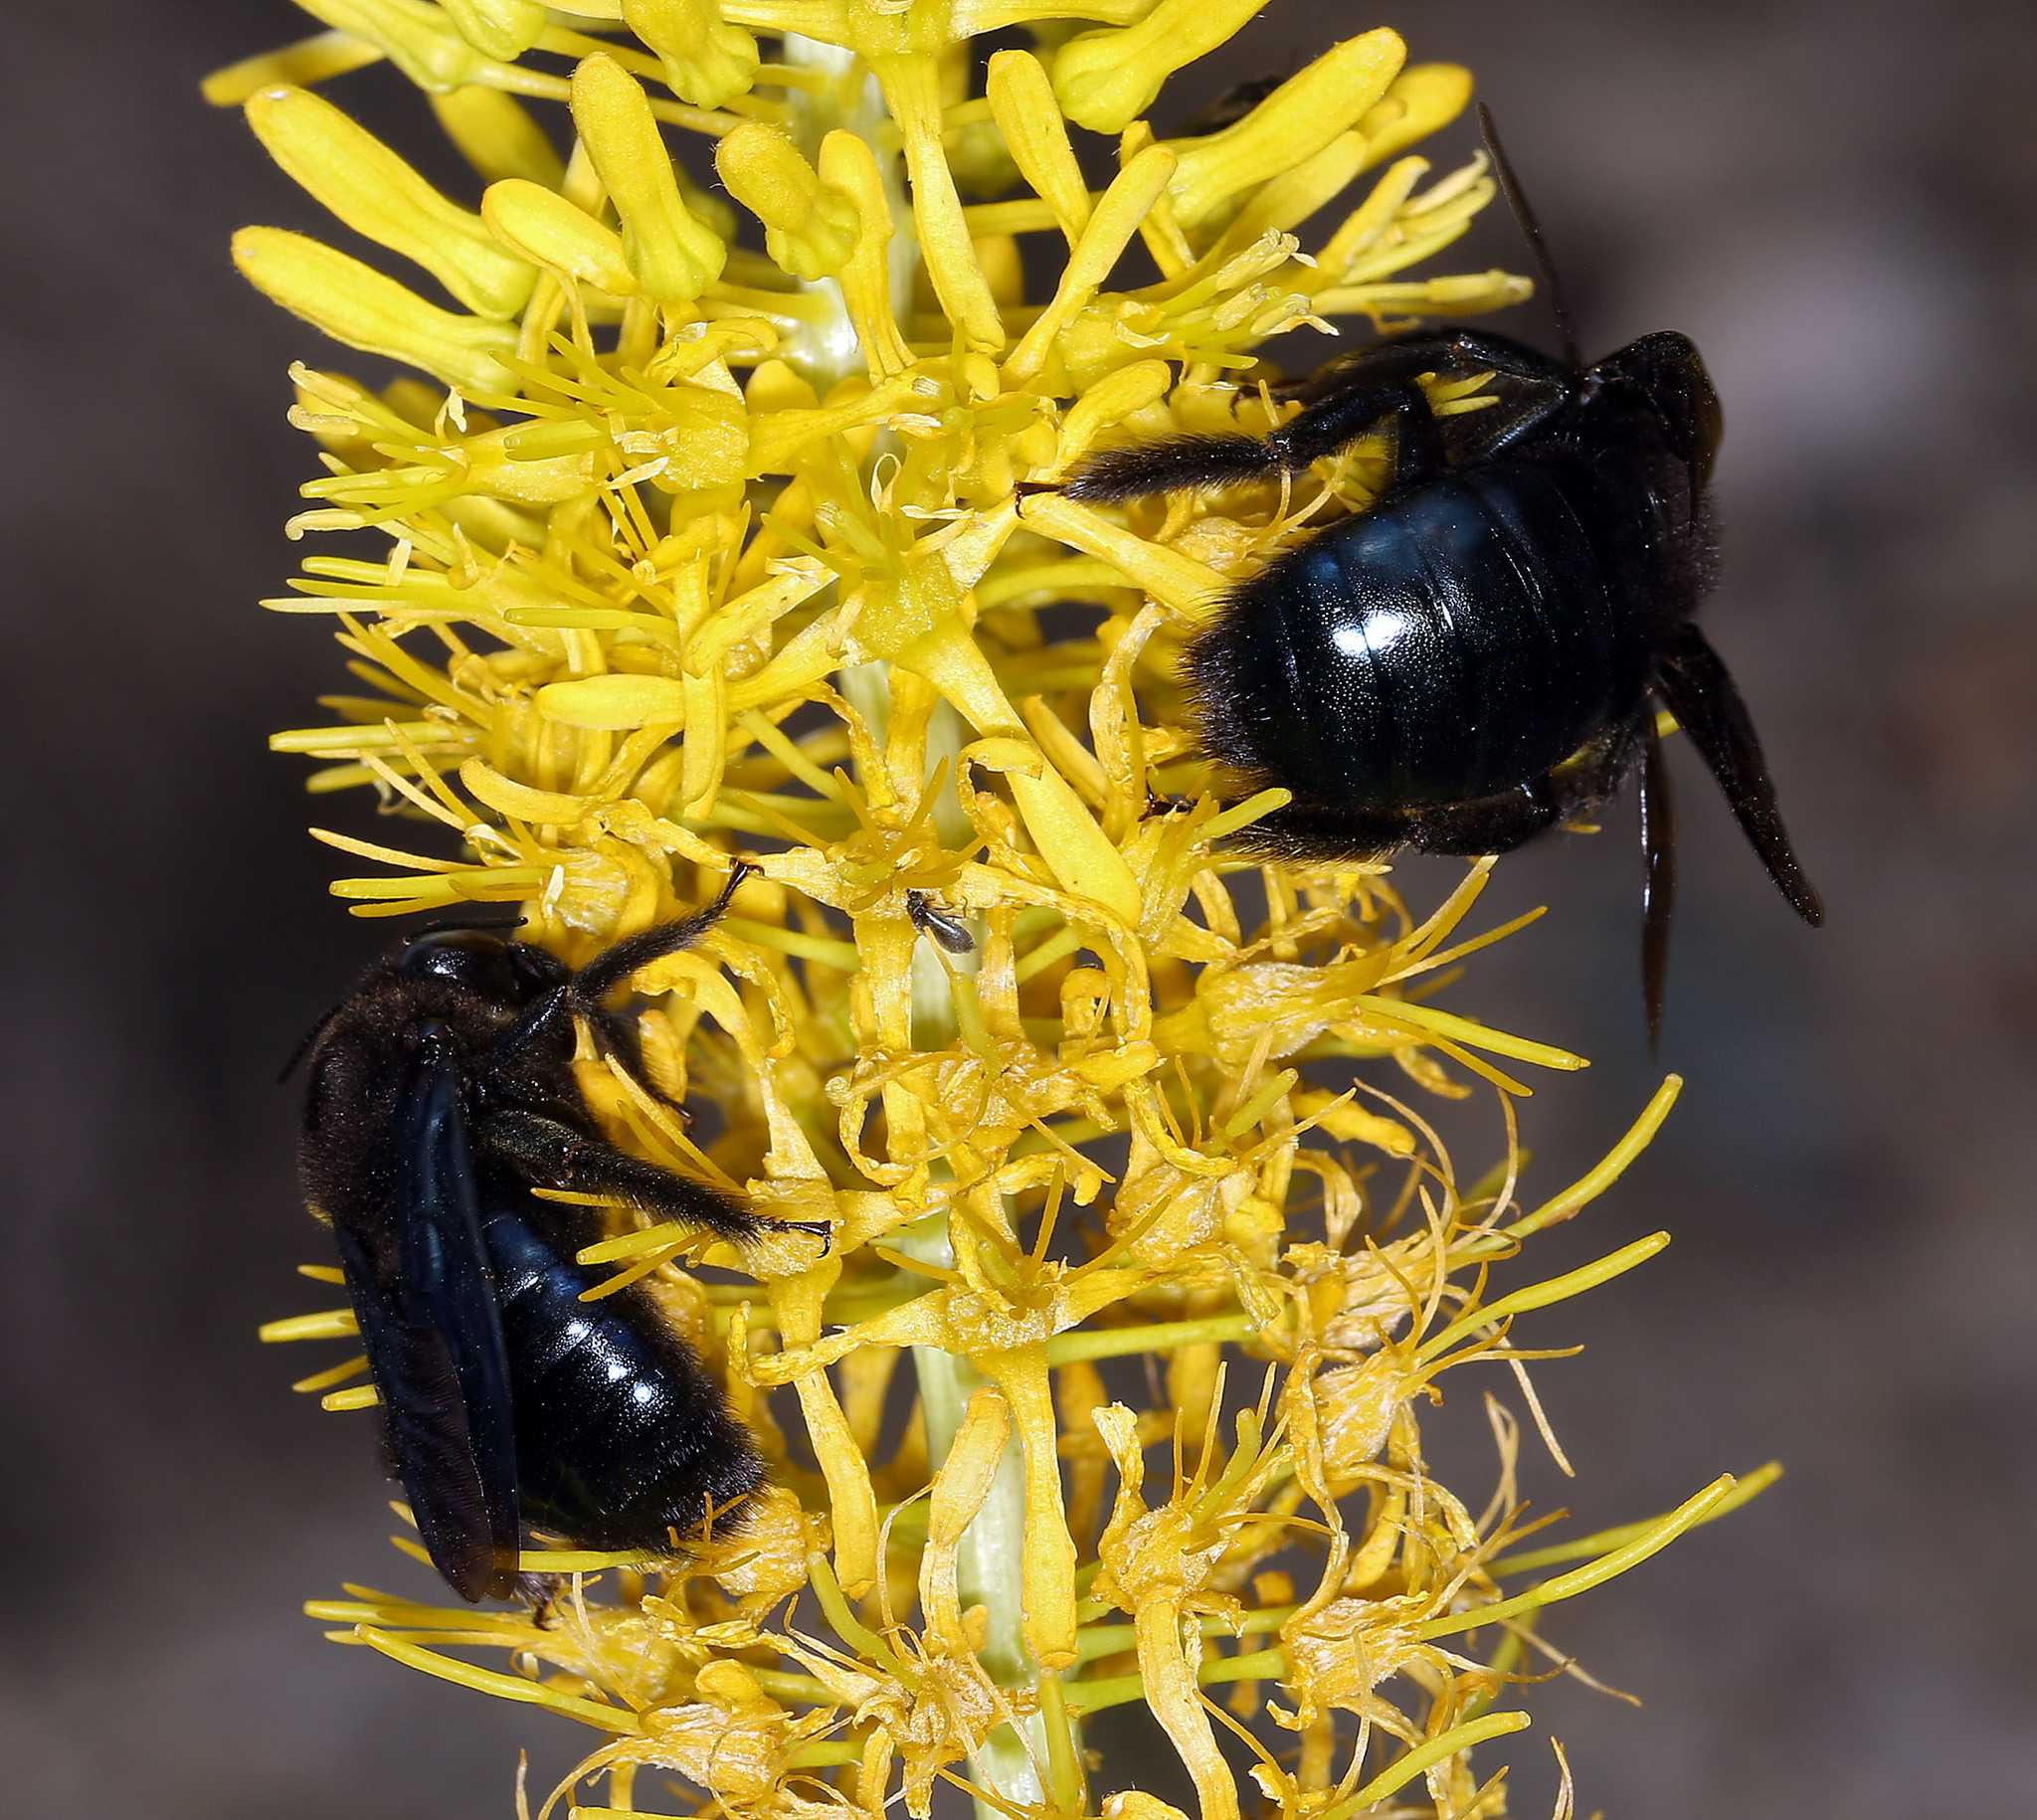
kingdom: Animalia
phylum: Arthropoda
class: Insecta
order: Hymenoptera
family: Apidae
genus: Xylocopa
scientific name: Xylocopa californica
